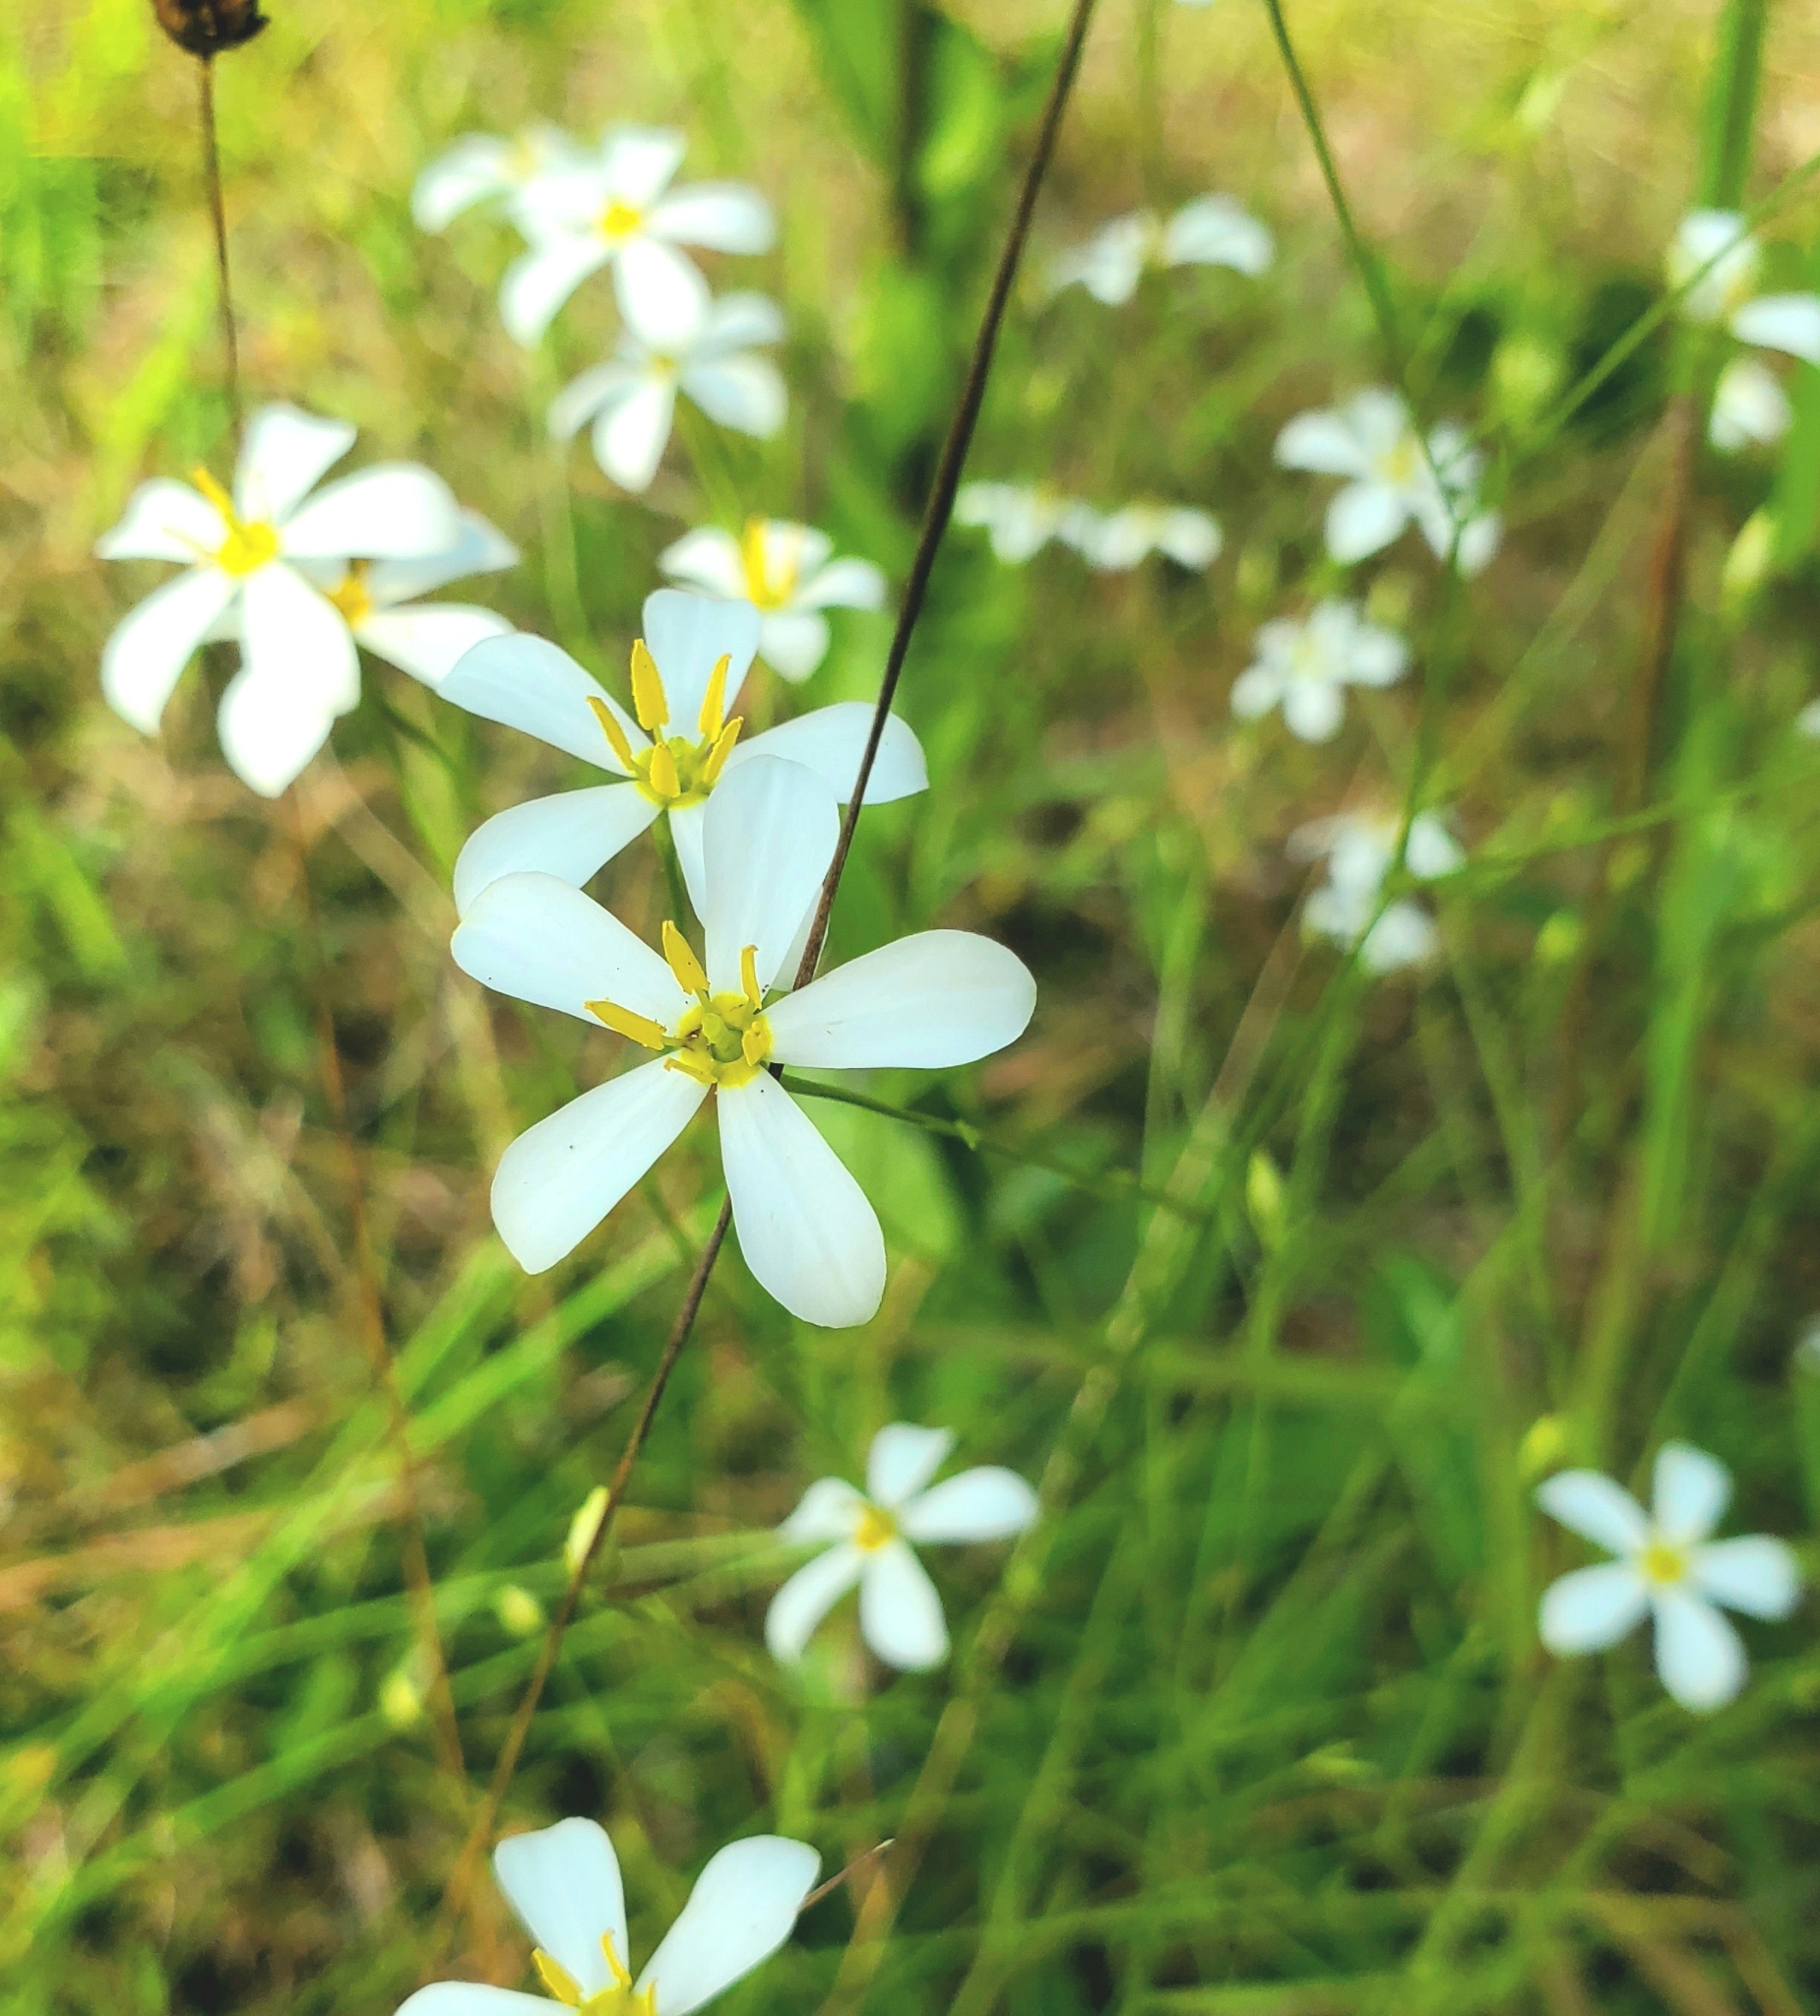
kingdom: Plantae
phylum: Tracheophyta
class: Magnoliopsida
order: Gentianales
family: Gentianaceae
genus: Sabatia
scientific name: Sabatia brevifolia
